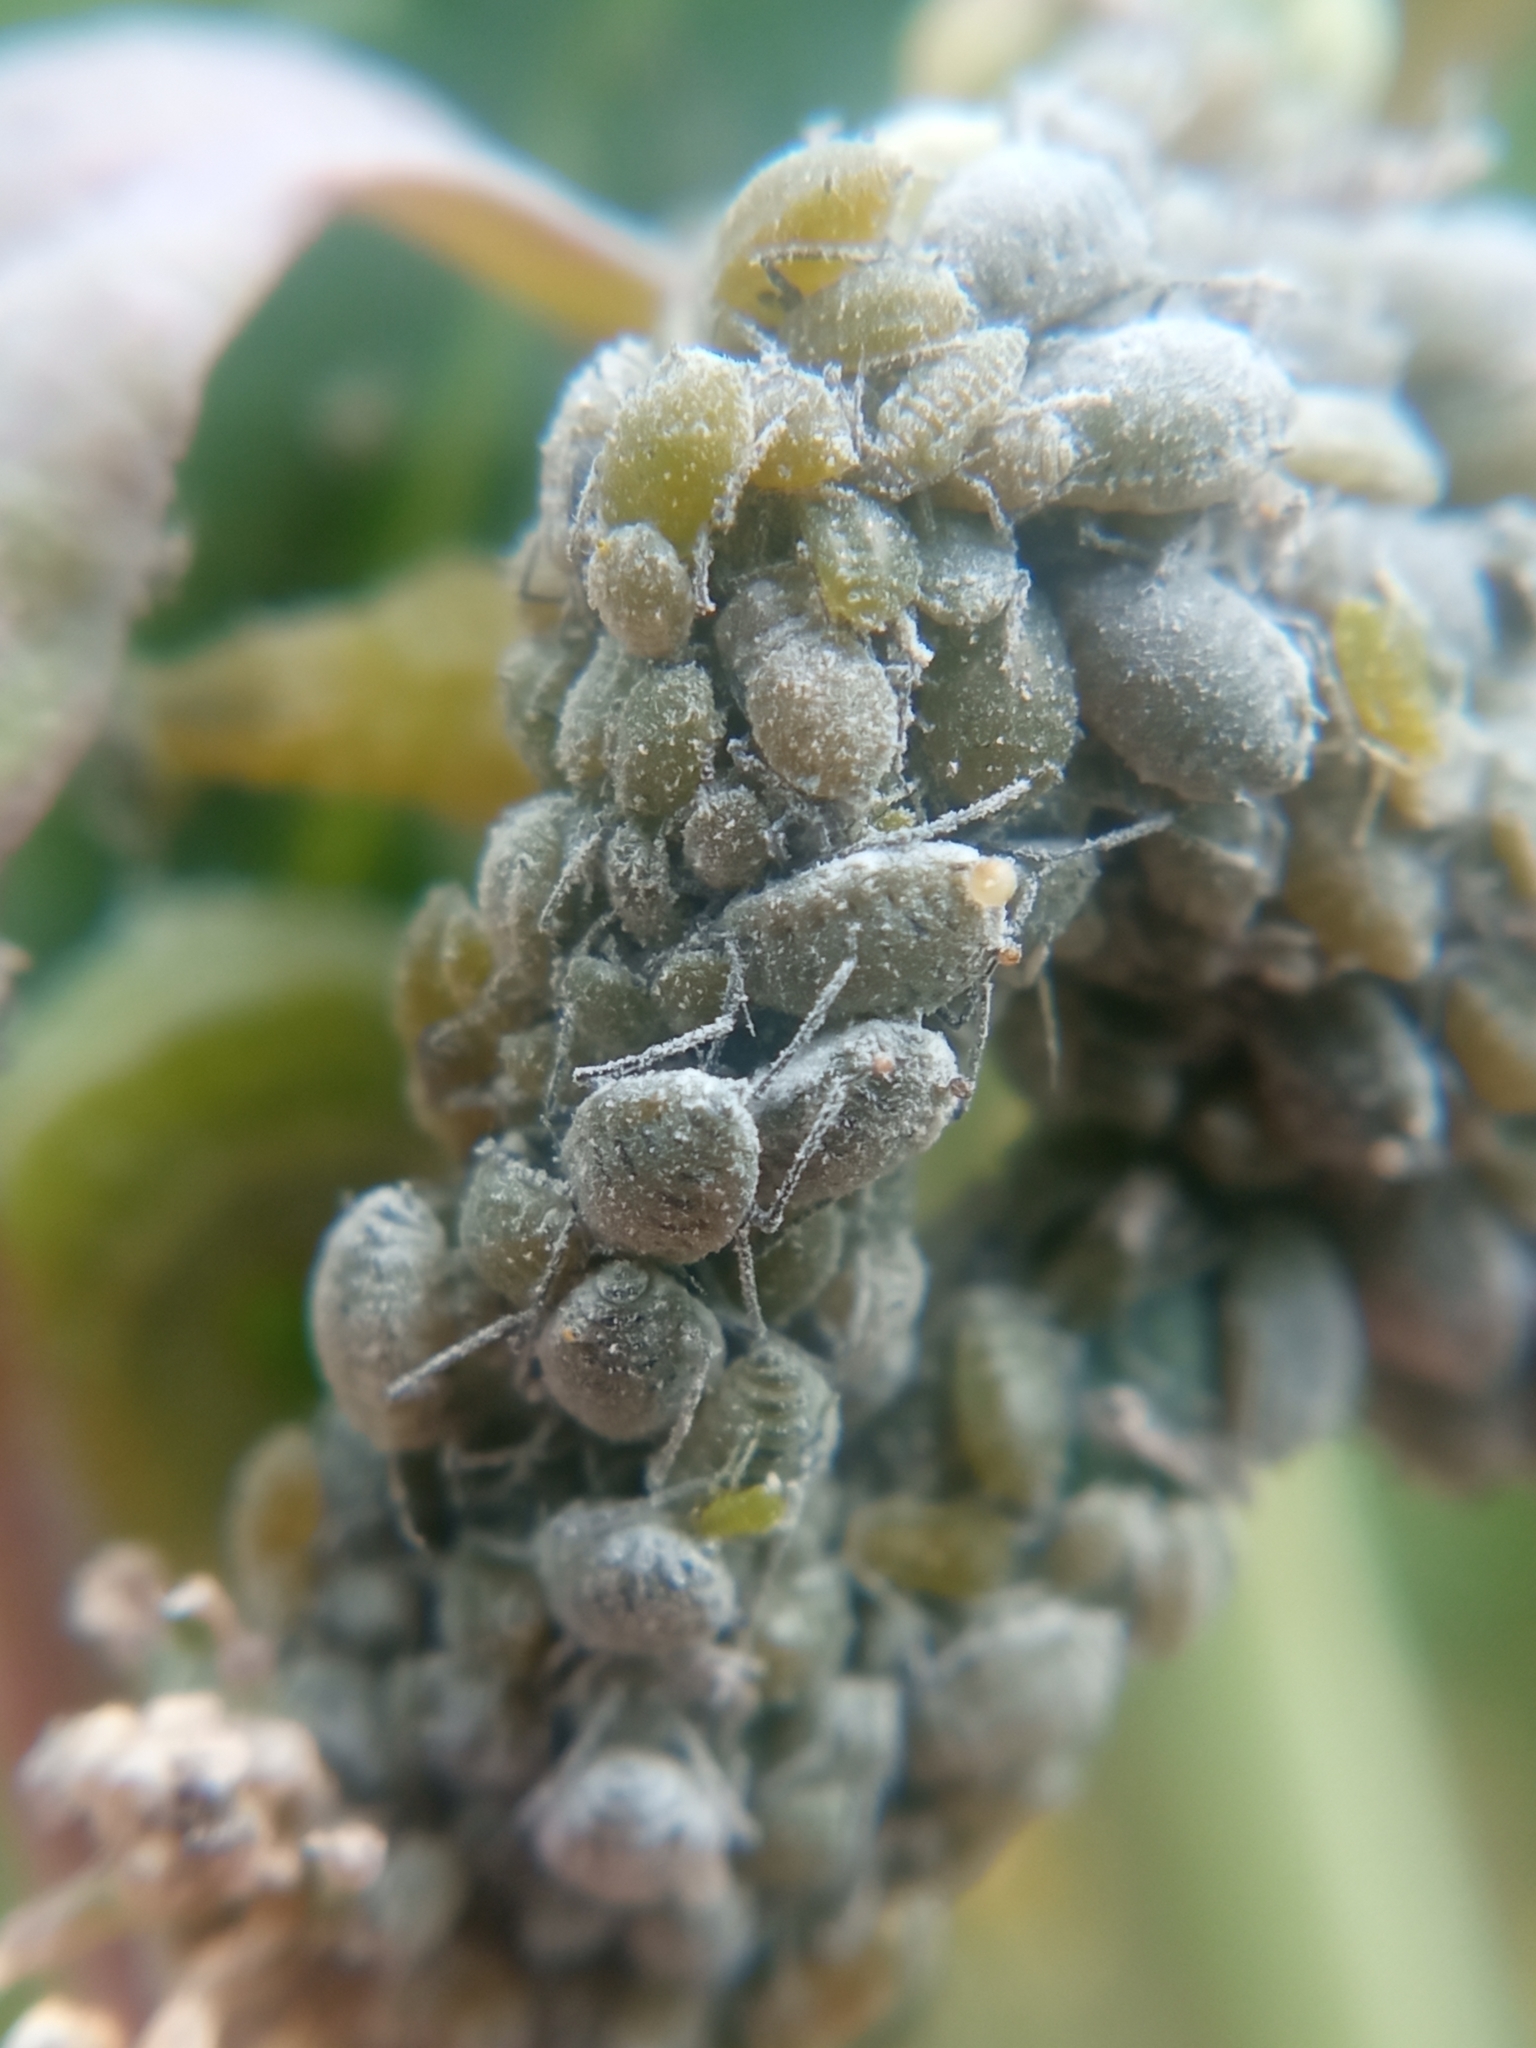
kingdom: Animalia
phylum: Arthropoda
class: Insecta
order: Hemiptera
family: Aphididae
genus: Brevicoryne
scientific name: Brevicoryne brassicae
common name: Cabbage aphid
